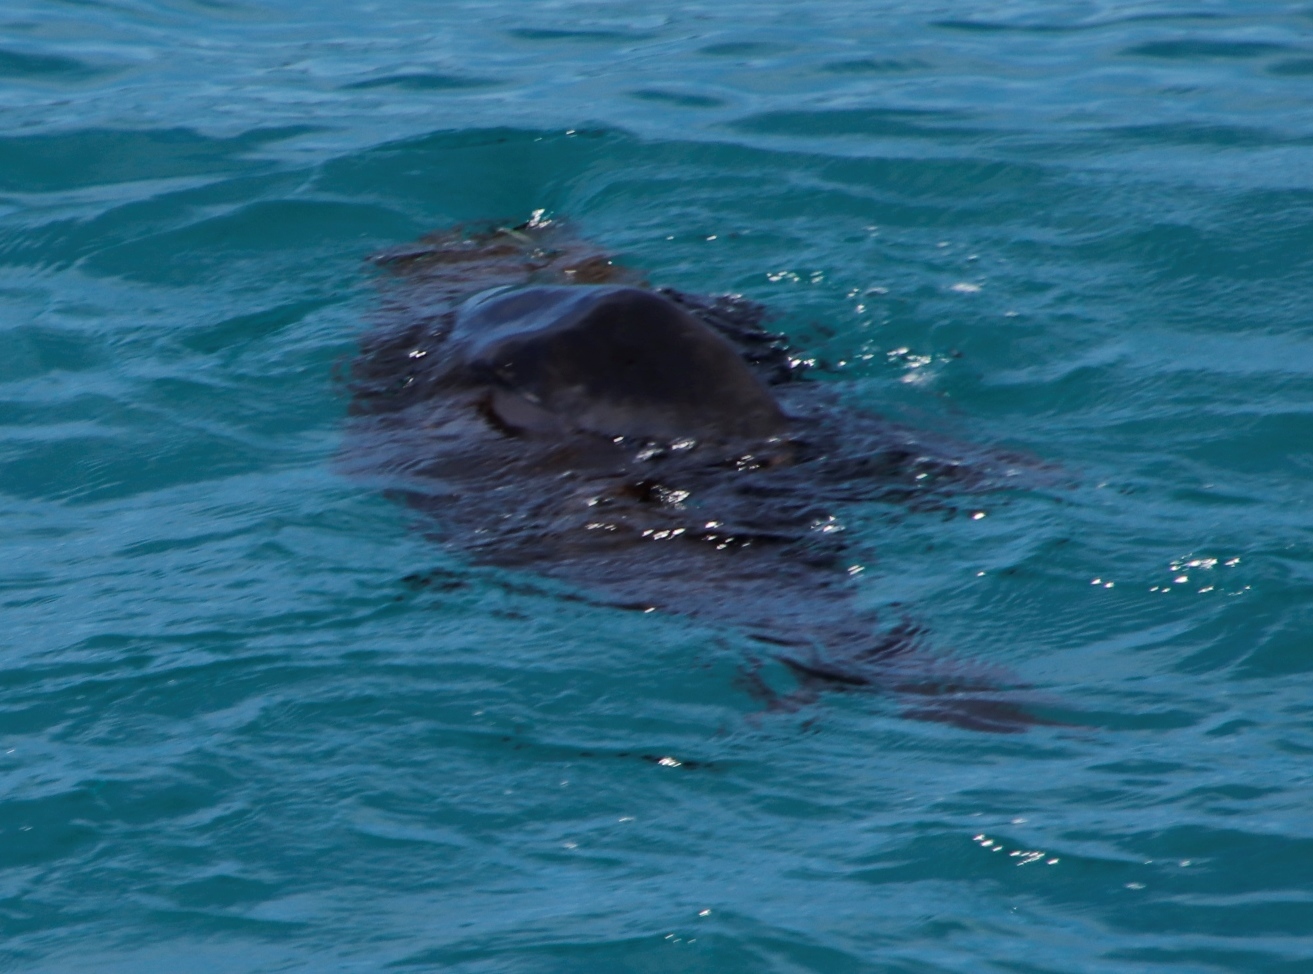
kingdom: Animalia
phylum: Chordata
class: Mammalia
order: Carnivora
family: Otariidae
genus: Arctocephalus
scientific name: Arctocephalus pusillus
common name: Brown fur seal
